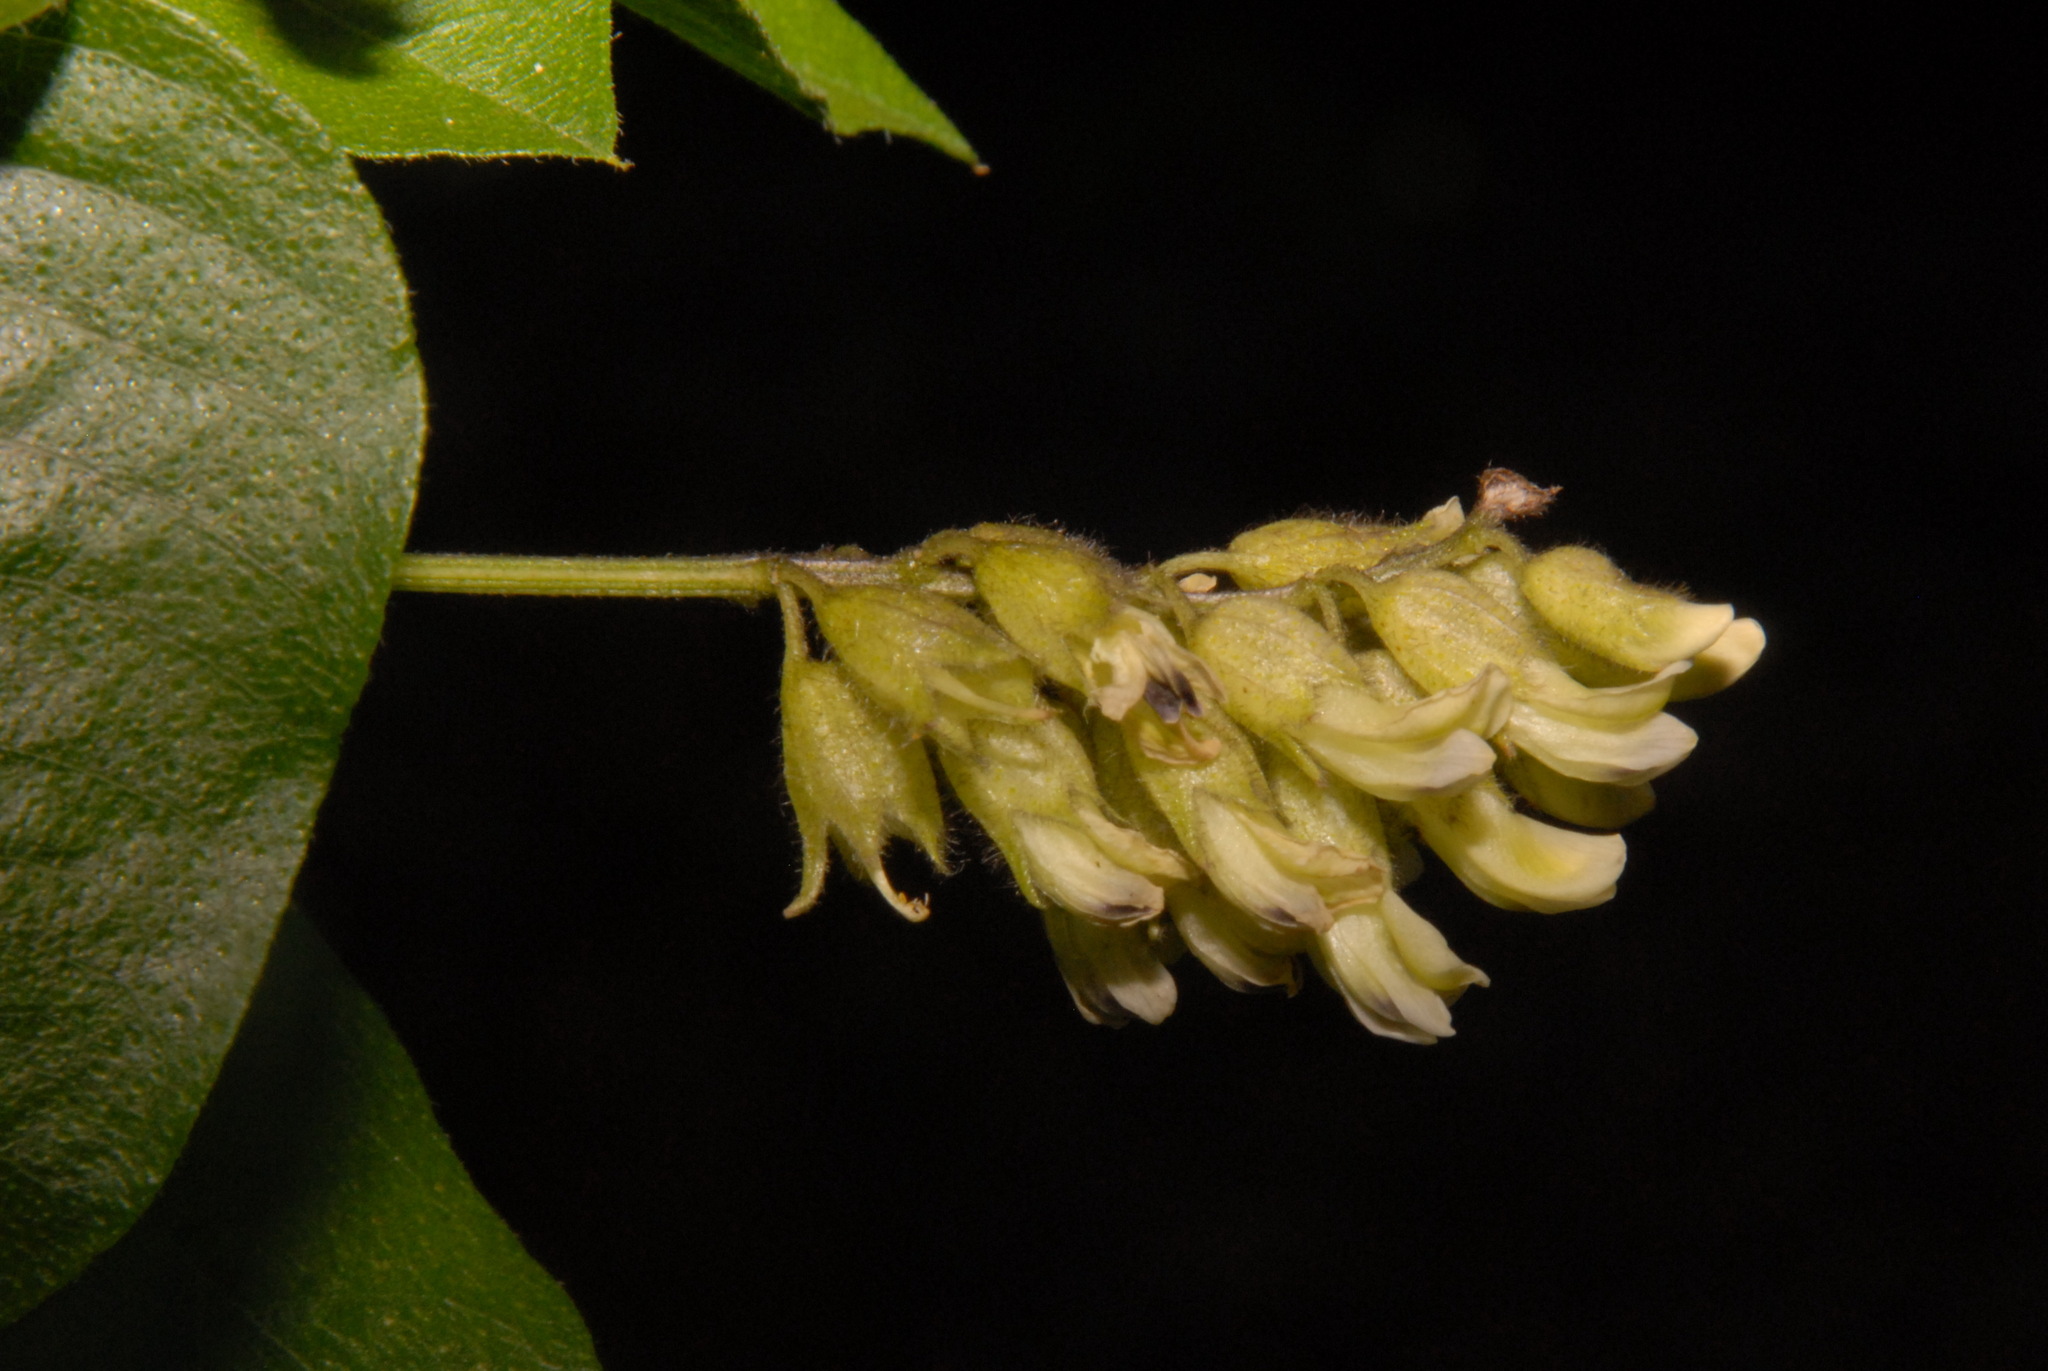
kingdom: Plantae
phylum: Tracheophyta
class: Magnoliopsida
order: Fabales
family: Fabaceae
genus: Rupertia
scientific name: Rupertia physodes
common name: California-tea
